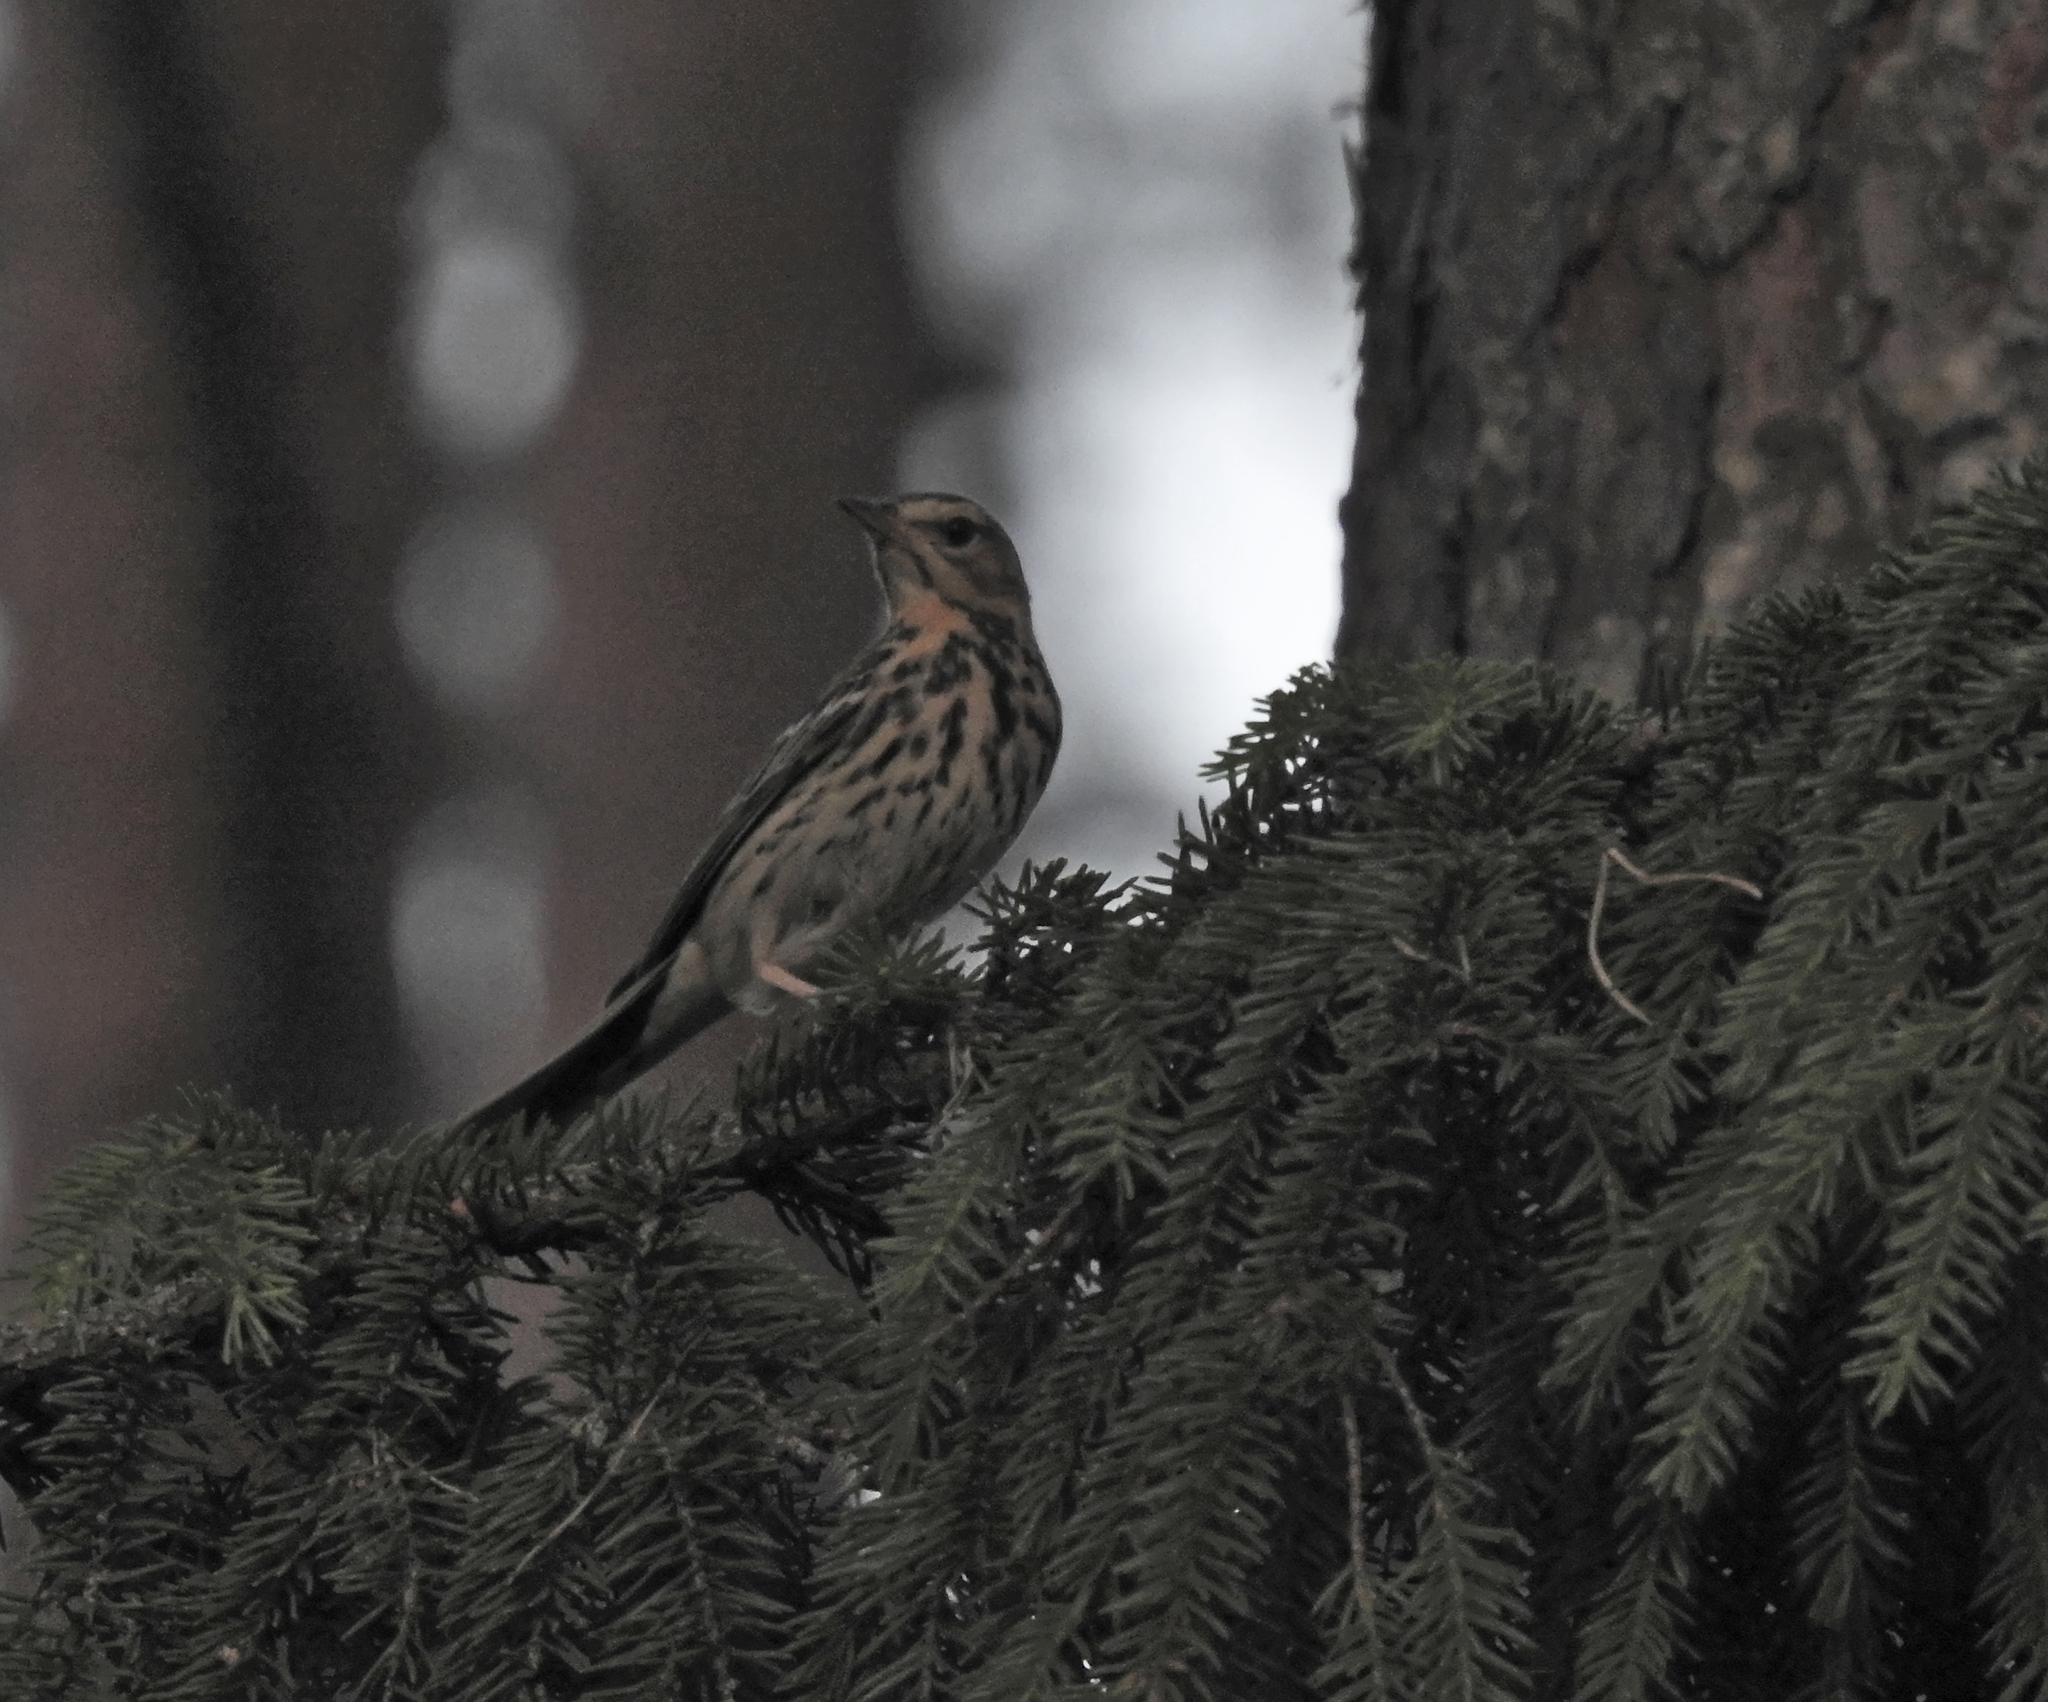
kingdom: Animalia
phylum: Chordata
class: Aves
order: Passeriformes
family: Motacillidae
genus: Anthus
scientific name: Anthus trivialis
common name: Tree pipit
